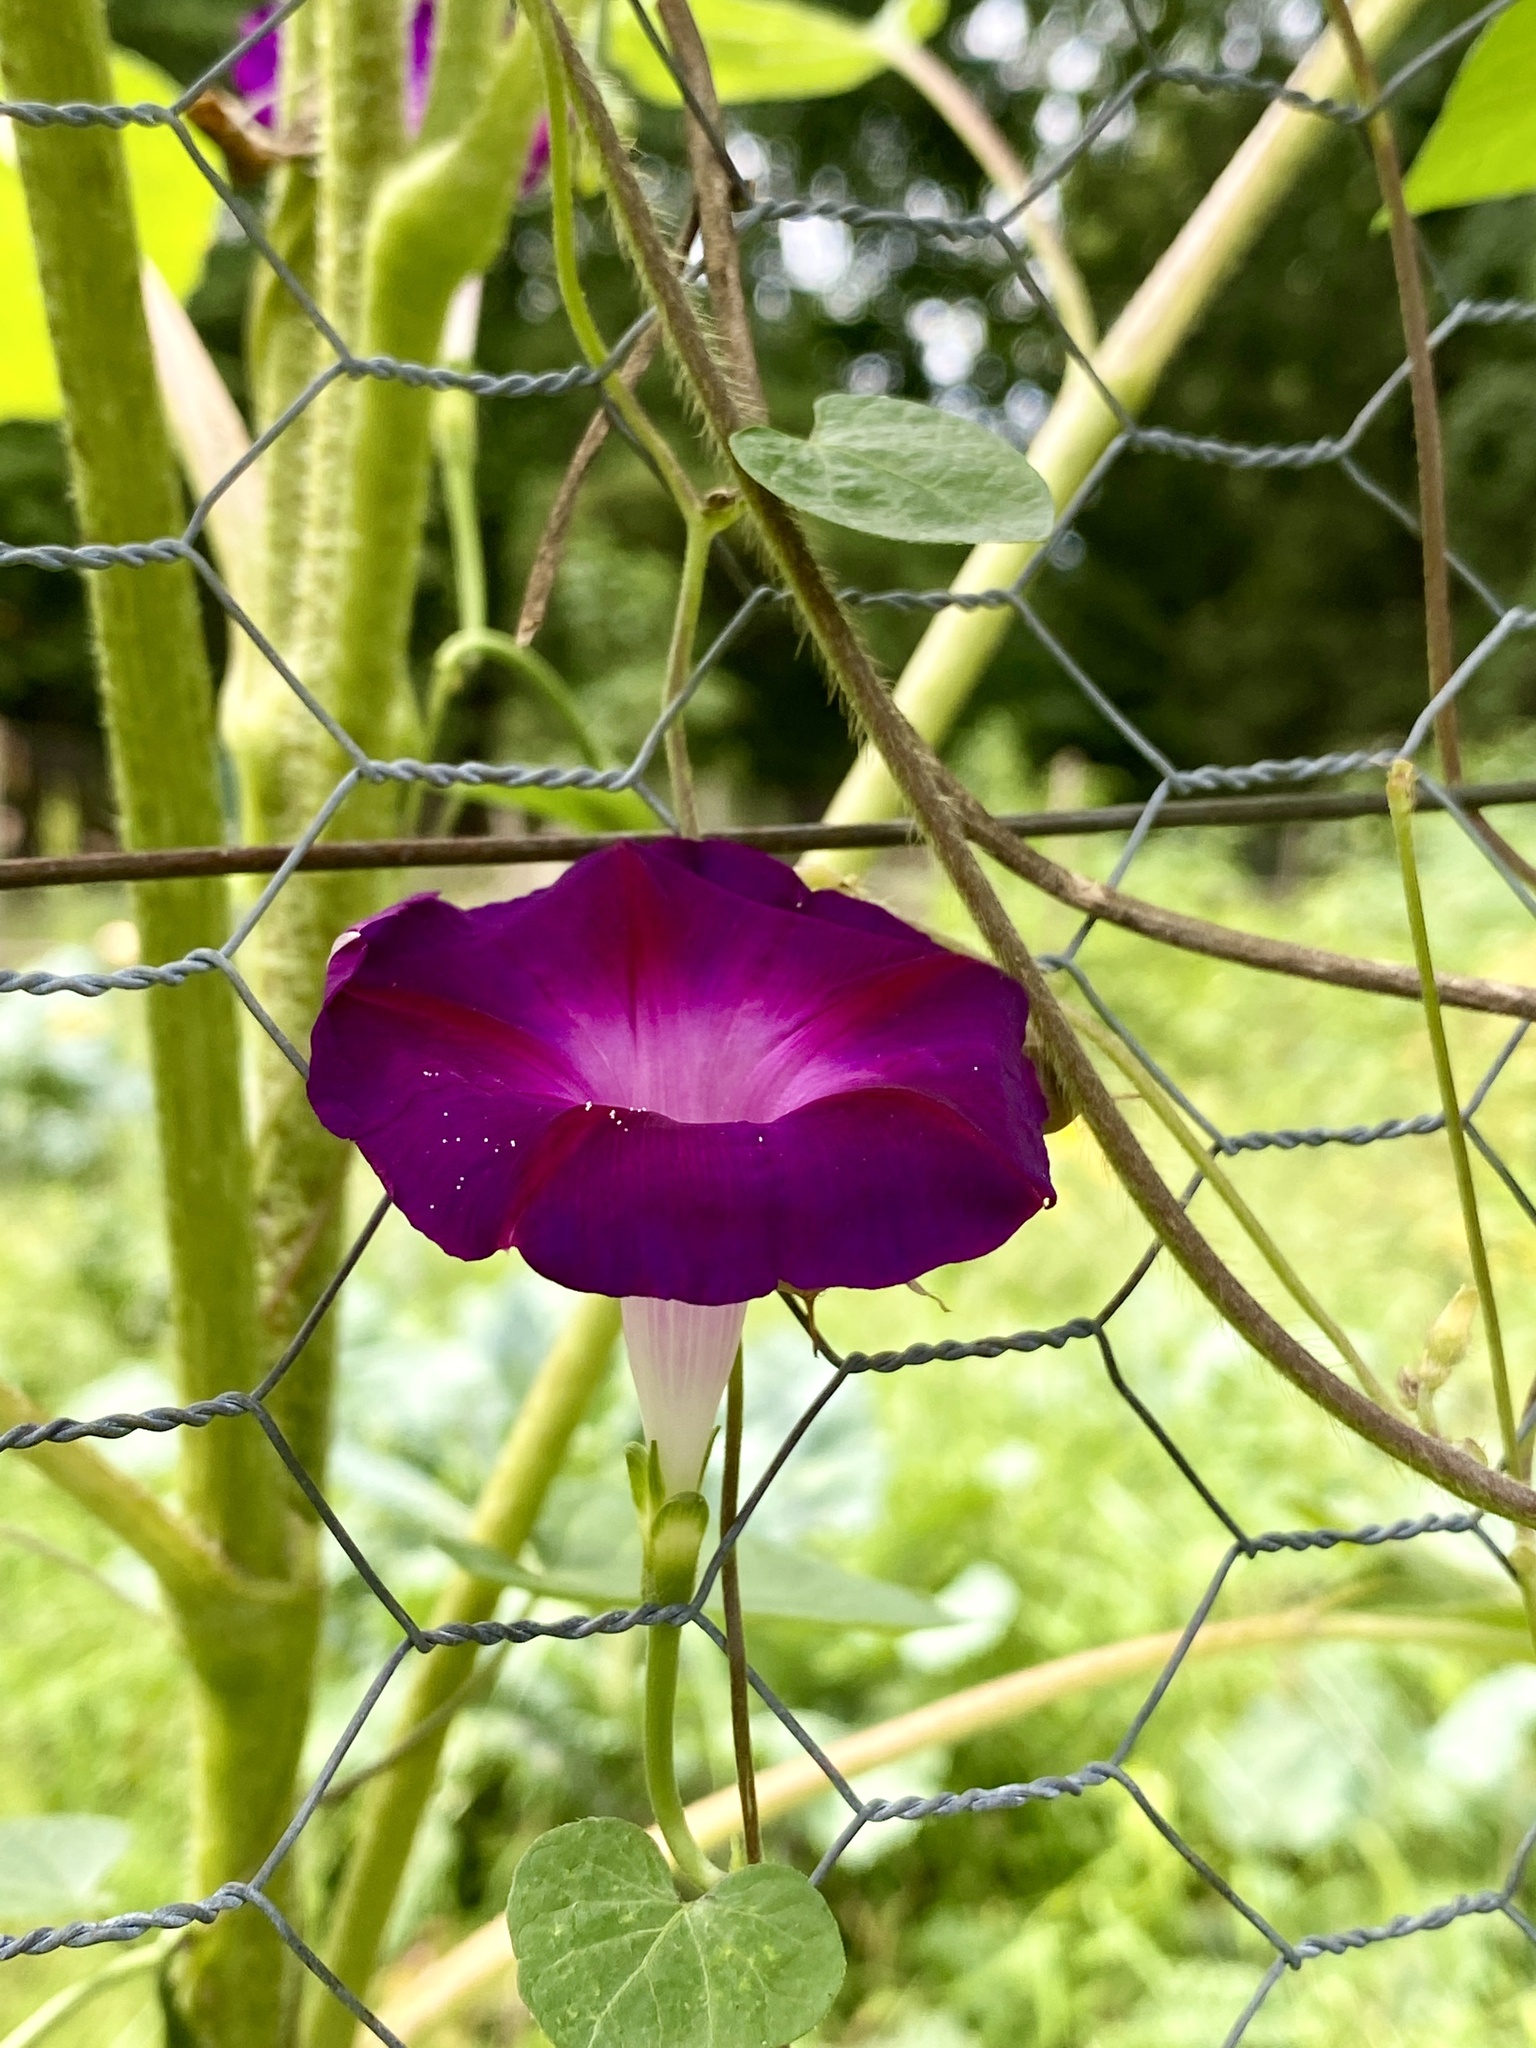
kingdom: Plantae
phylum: Tracheophyta
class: Magnoliopsida
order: Solanales
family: Convolvulaceae
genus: Ipomoea
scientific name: Ipomoea purpurea
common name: Common morning-glory
